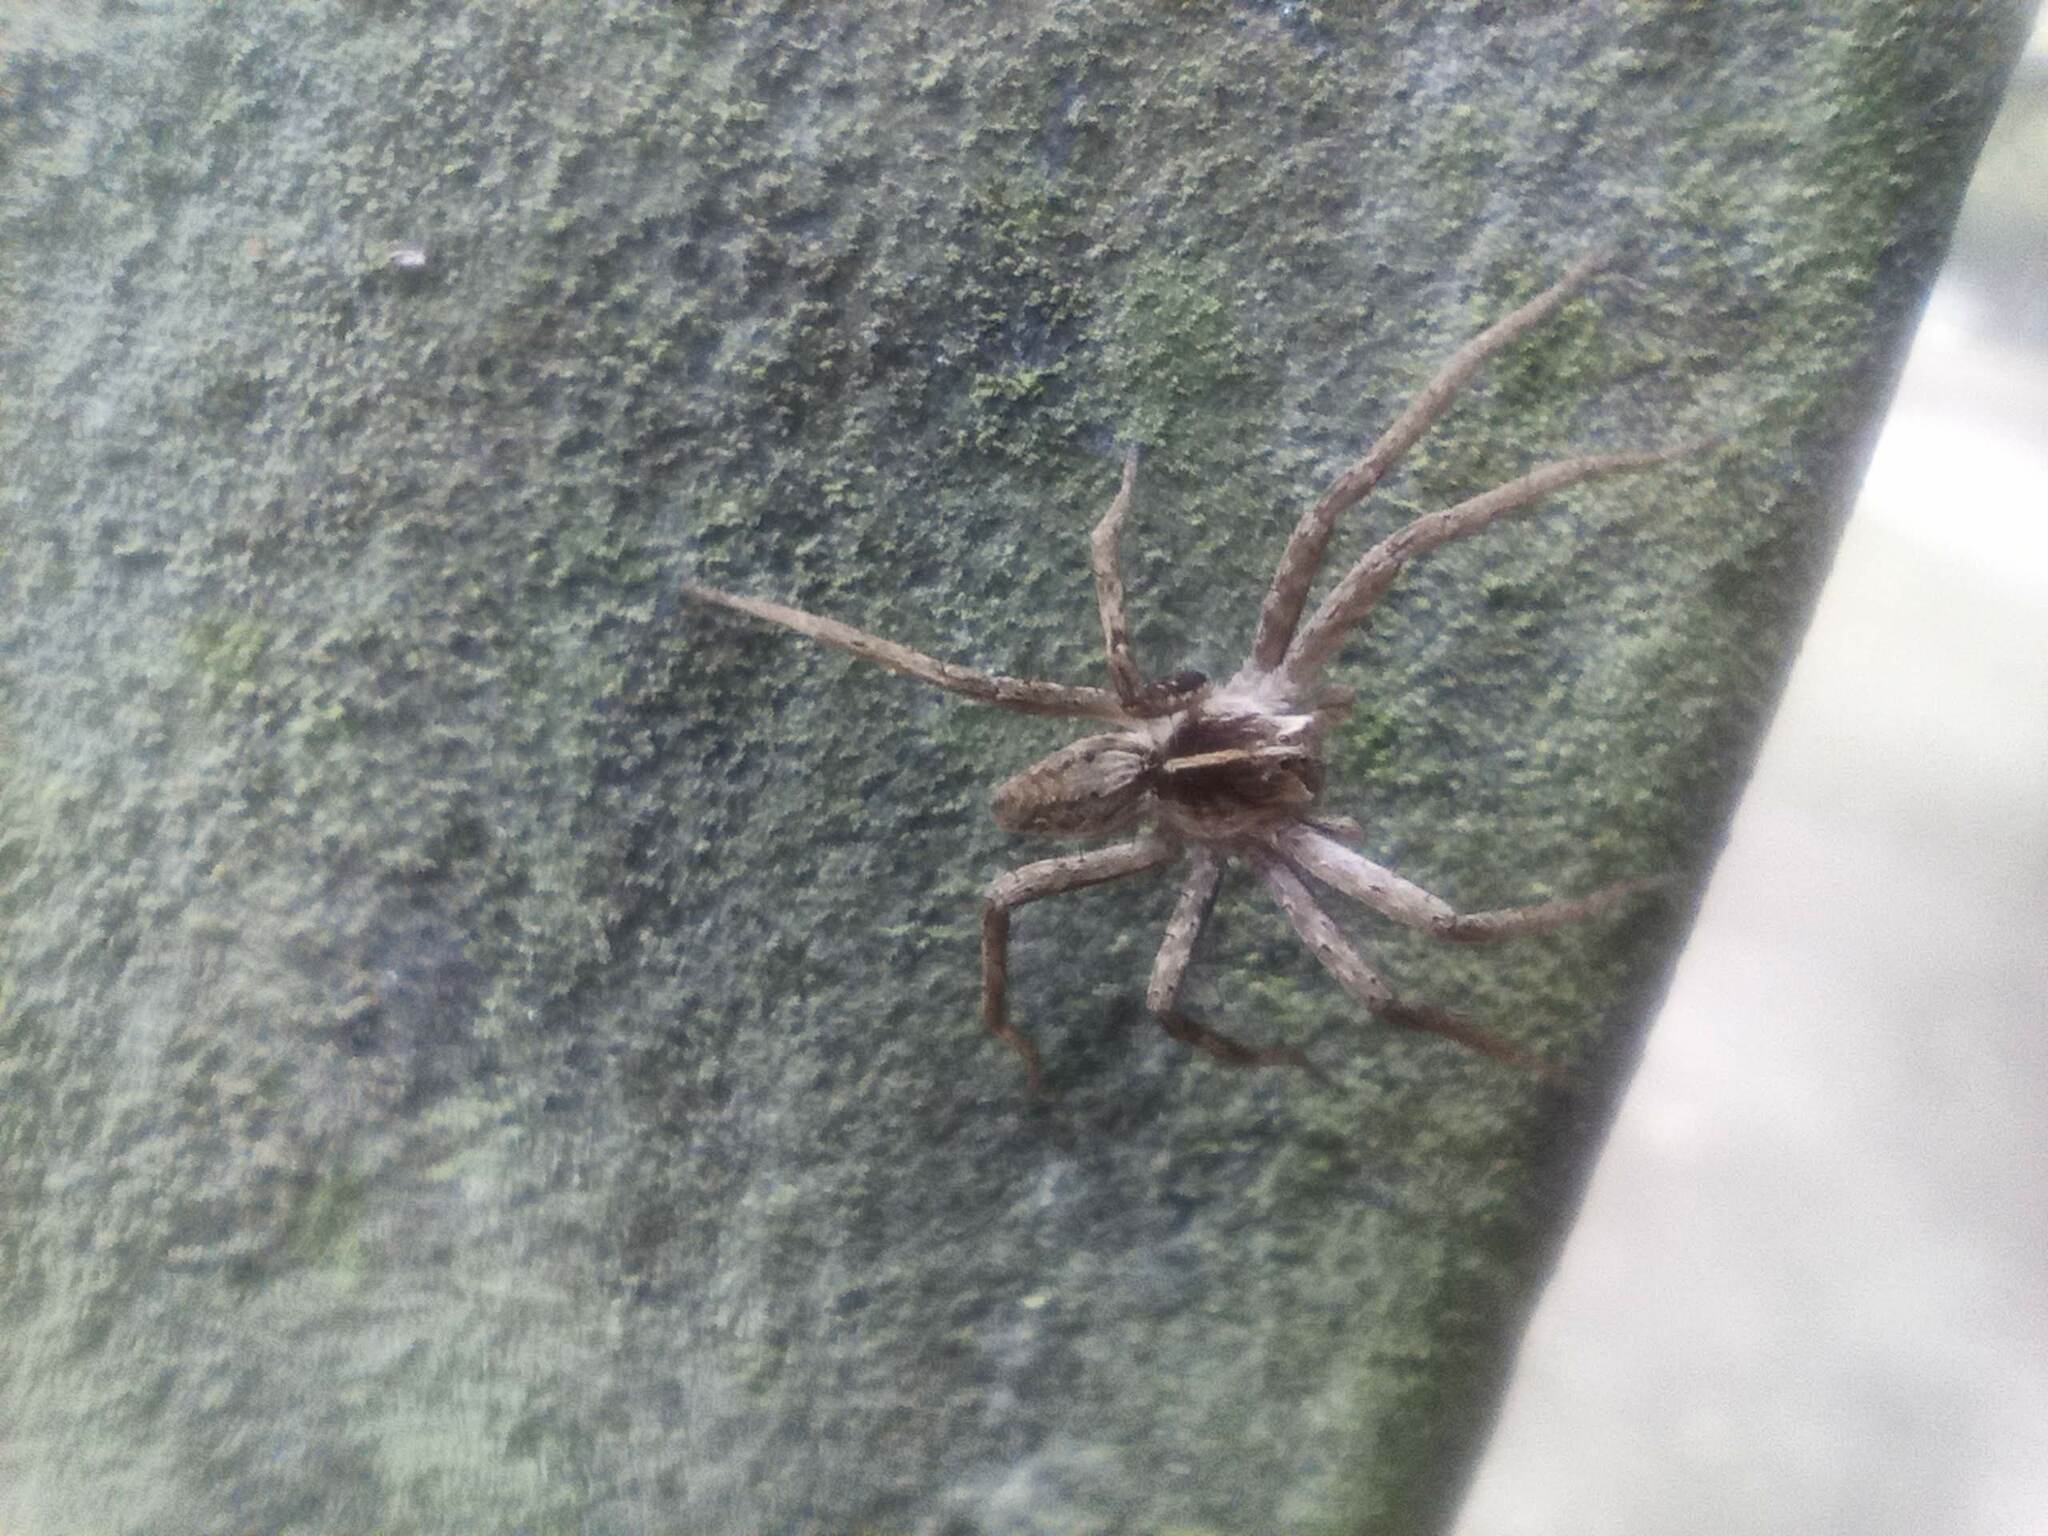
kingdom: Animalia
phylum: Arthropoda
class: Arachnida
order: Araneae
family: Pisauridae
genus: Pisaura
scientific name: Pisaura mirabilis
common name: Tent spider
